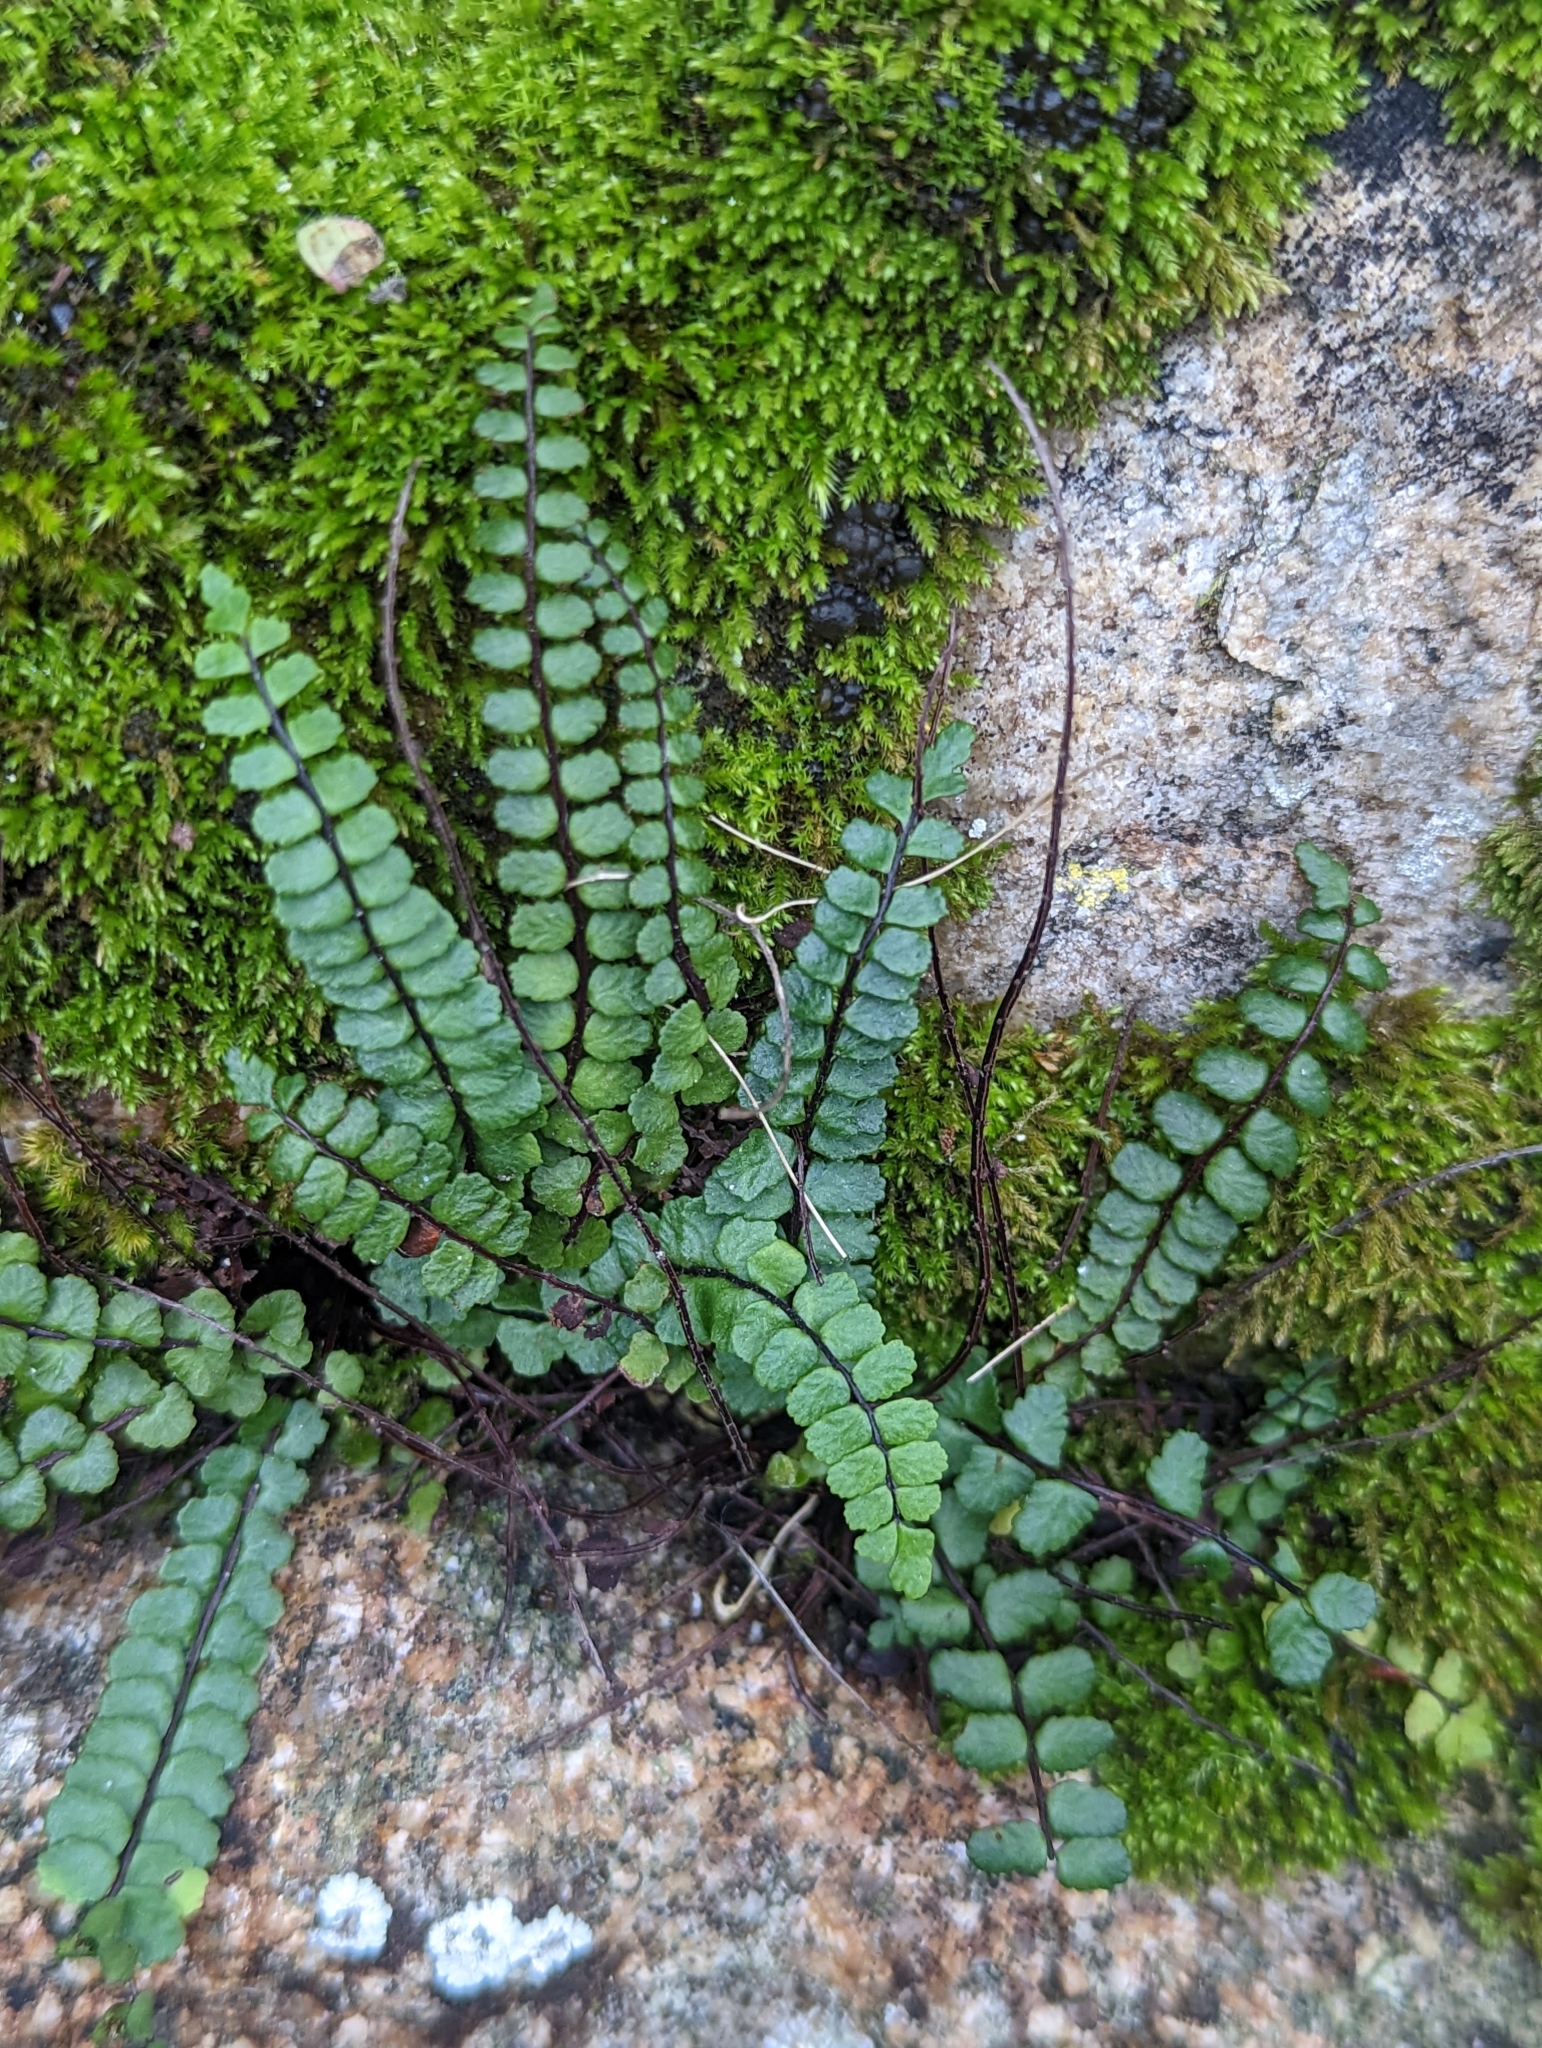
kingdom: Plantae
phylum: Tracheophyta
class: Polypodiopsida
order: Polypodiales
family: Aspleniaceae
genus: Asplenium
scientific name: Asplenium trichomanes
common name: Maidenhair spleenwort
